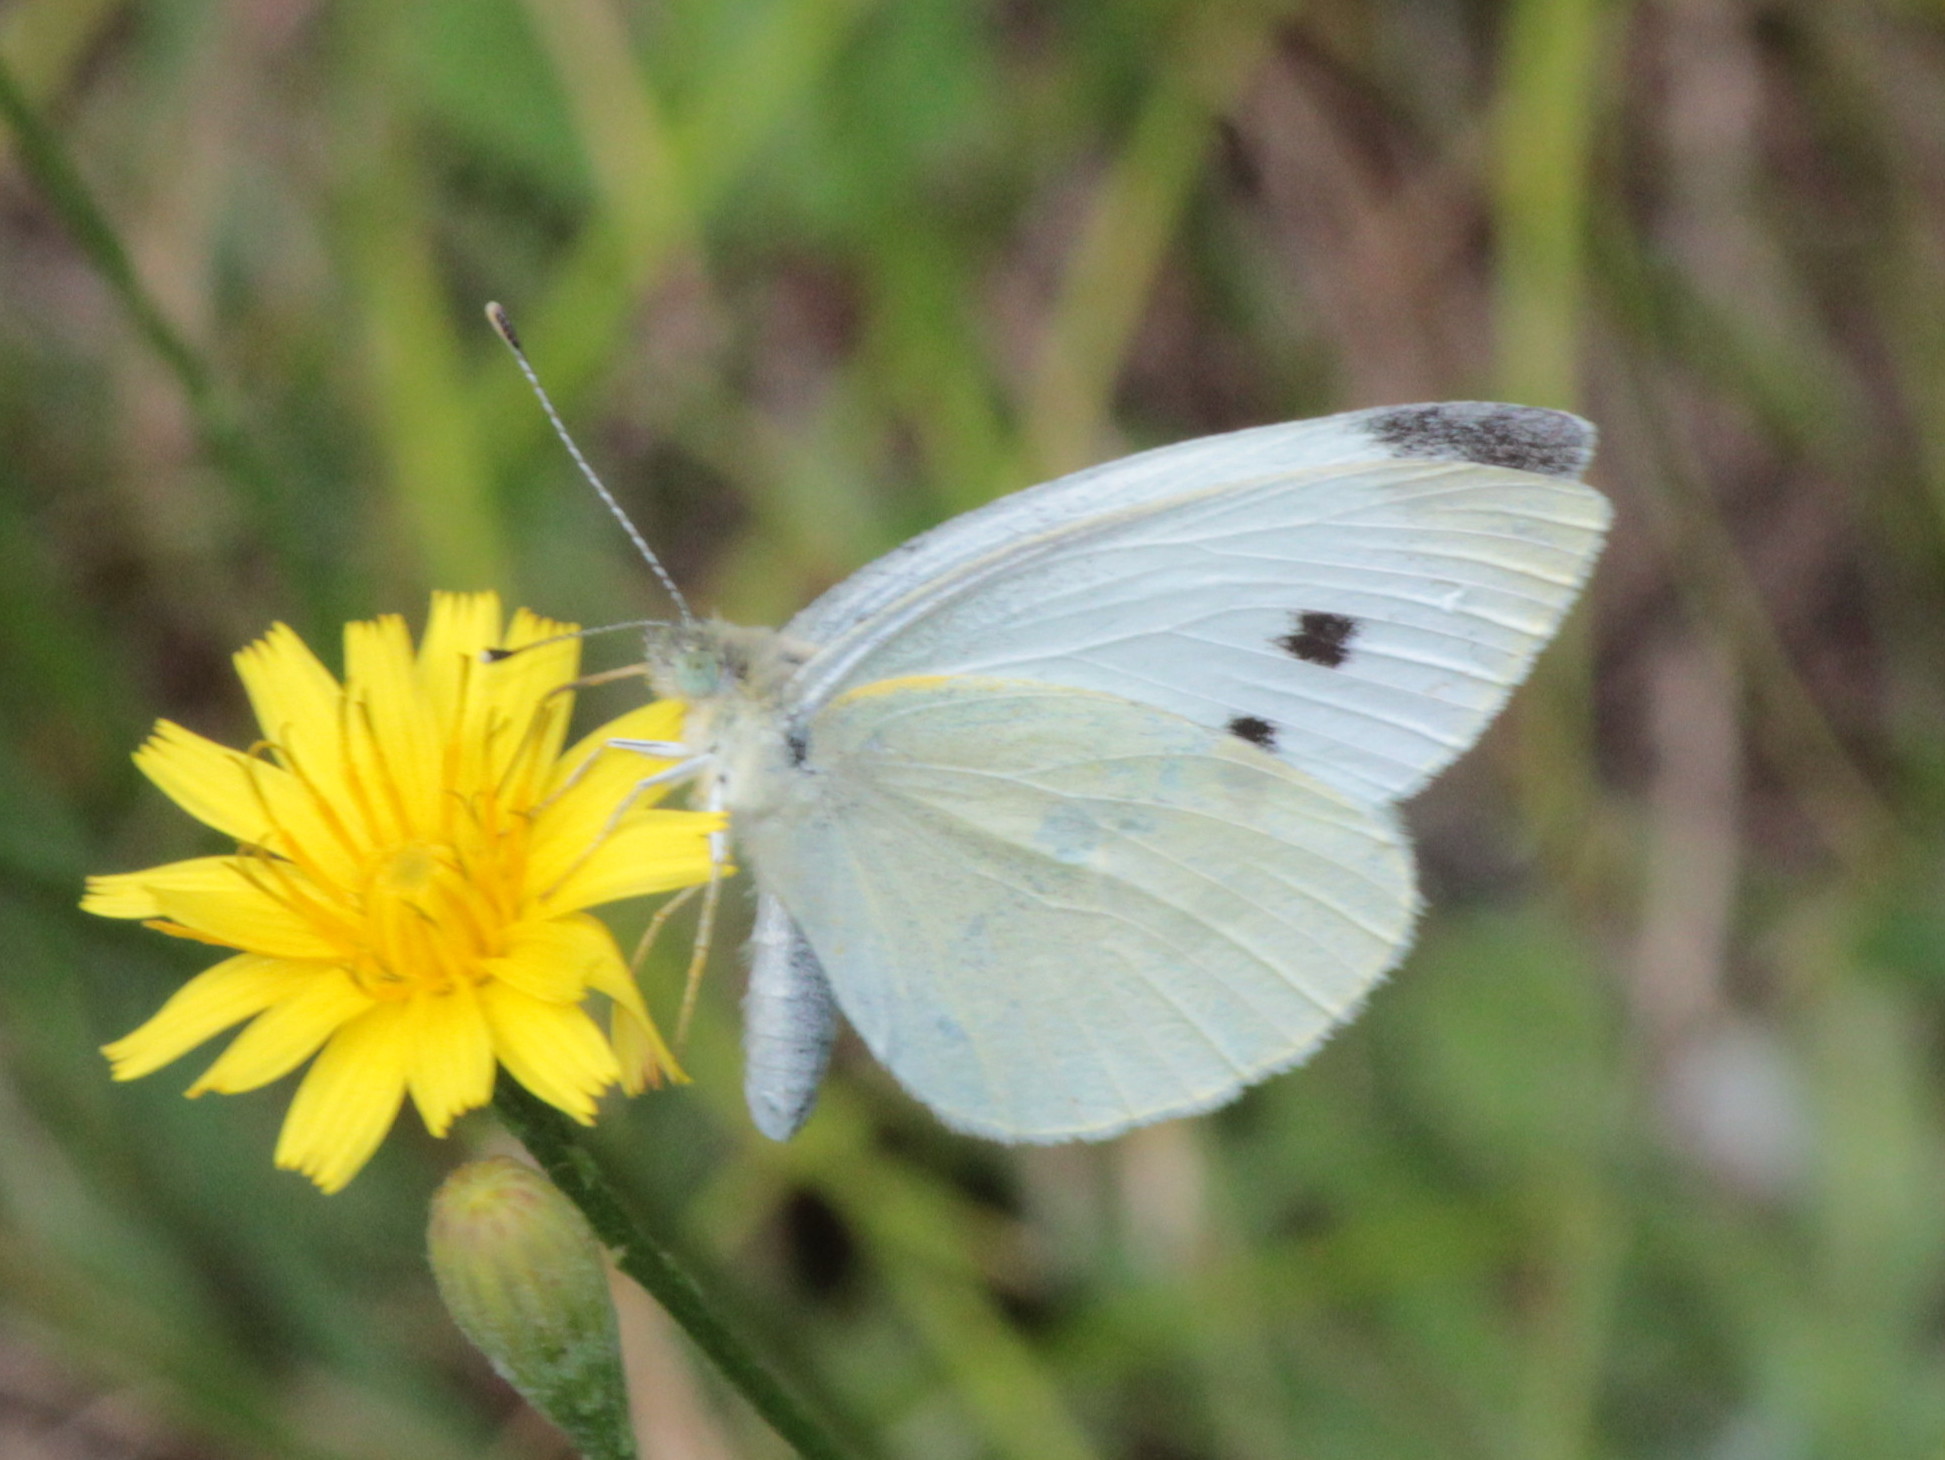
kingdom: Animalia
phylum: Arthropoda
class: Insecta
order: Lepidoptera
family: Pieridae
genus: Pieris
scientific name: Pieris rapae
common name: Small white
